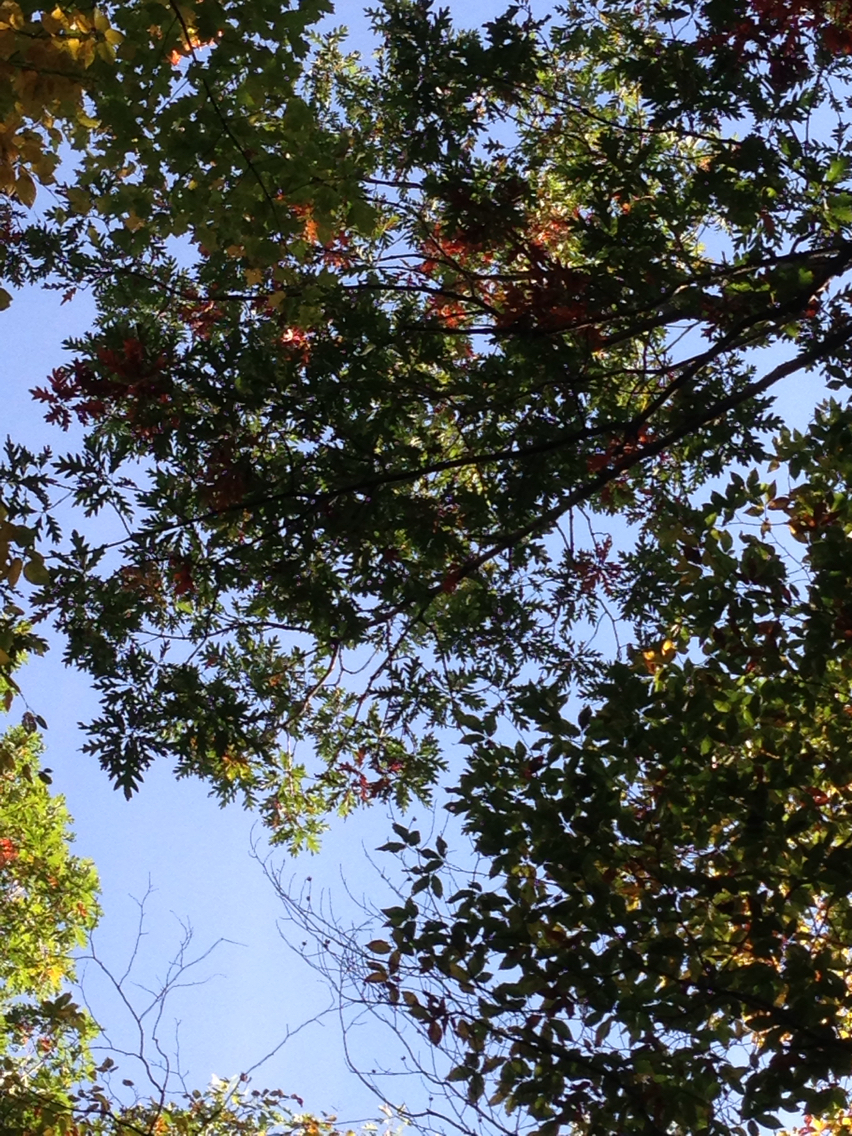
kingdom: Plantae
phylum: Tracheophyta
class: Magnoliopsida
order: Fagales
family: Fagaceae
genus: Quercus
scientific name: Quercus alba
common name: White oak
